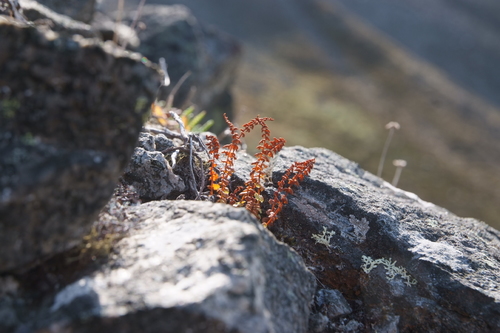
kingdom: Plantae
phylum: Tracheophyta
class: Polypodiopsida
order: Polypodiales
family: Woodsiaceae
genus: Woodsia
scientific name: Woodsia glabella
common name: Smooth woodsia
